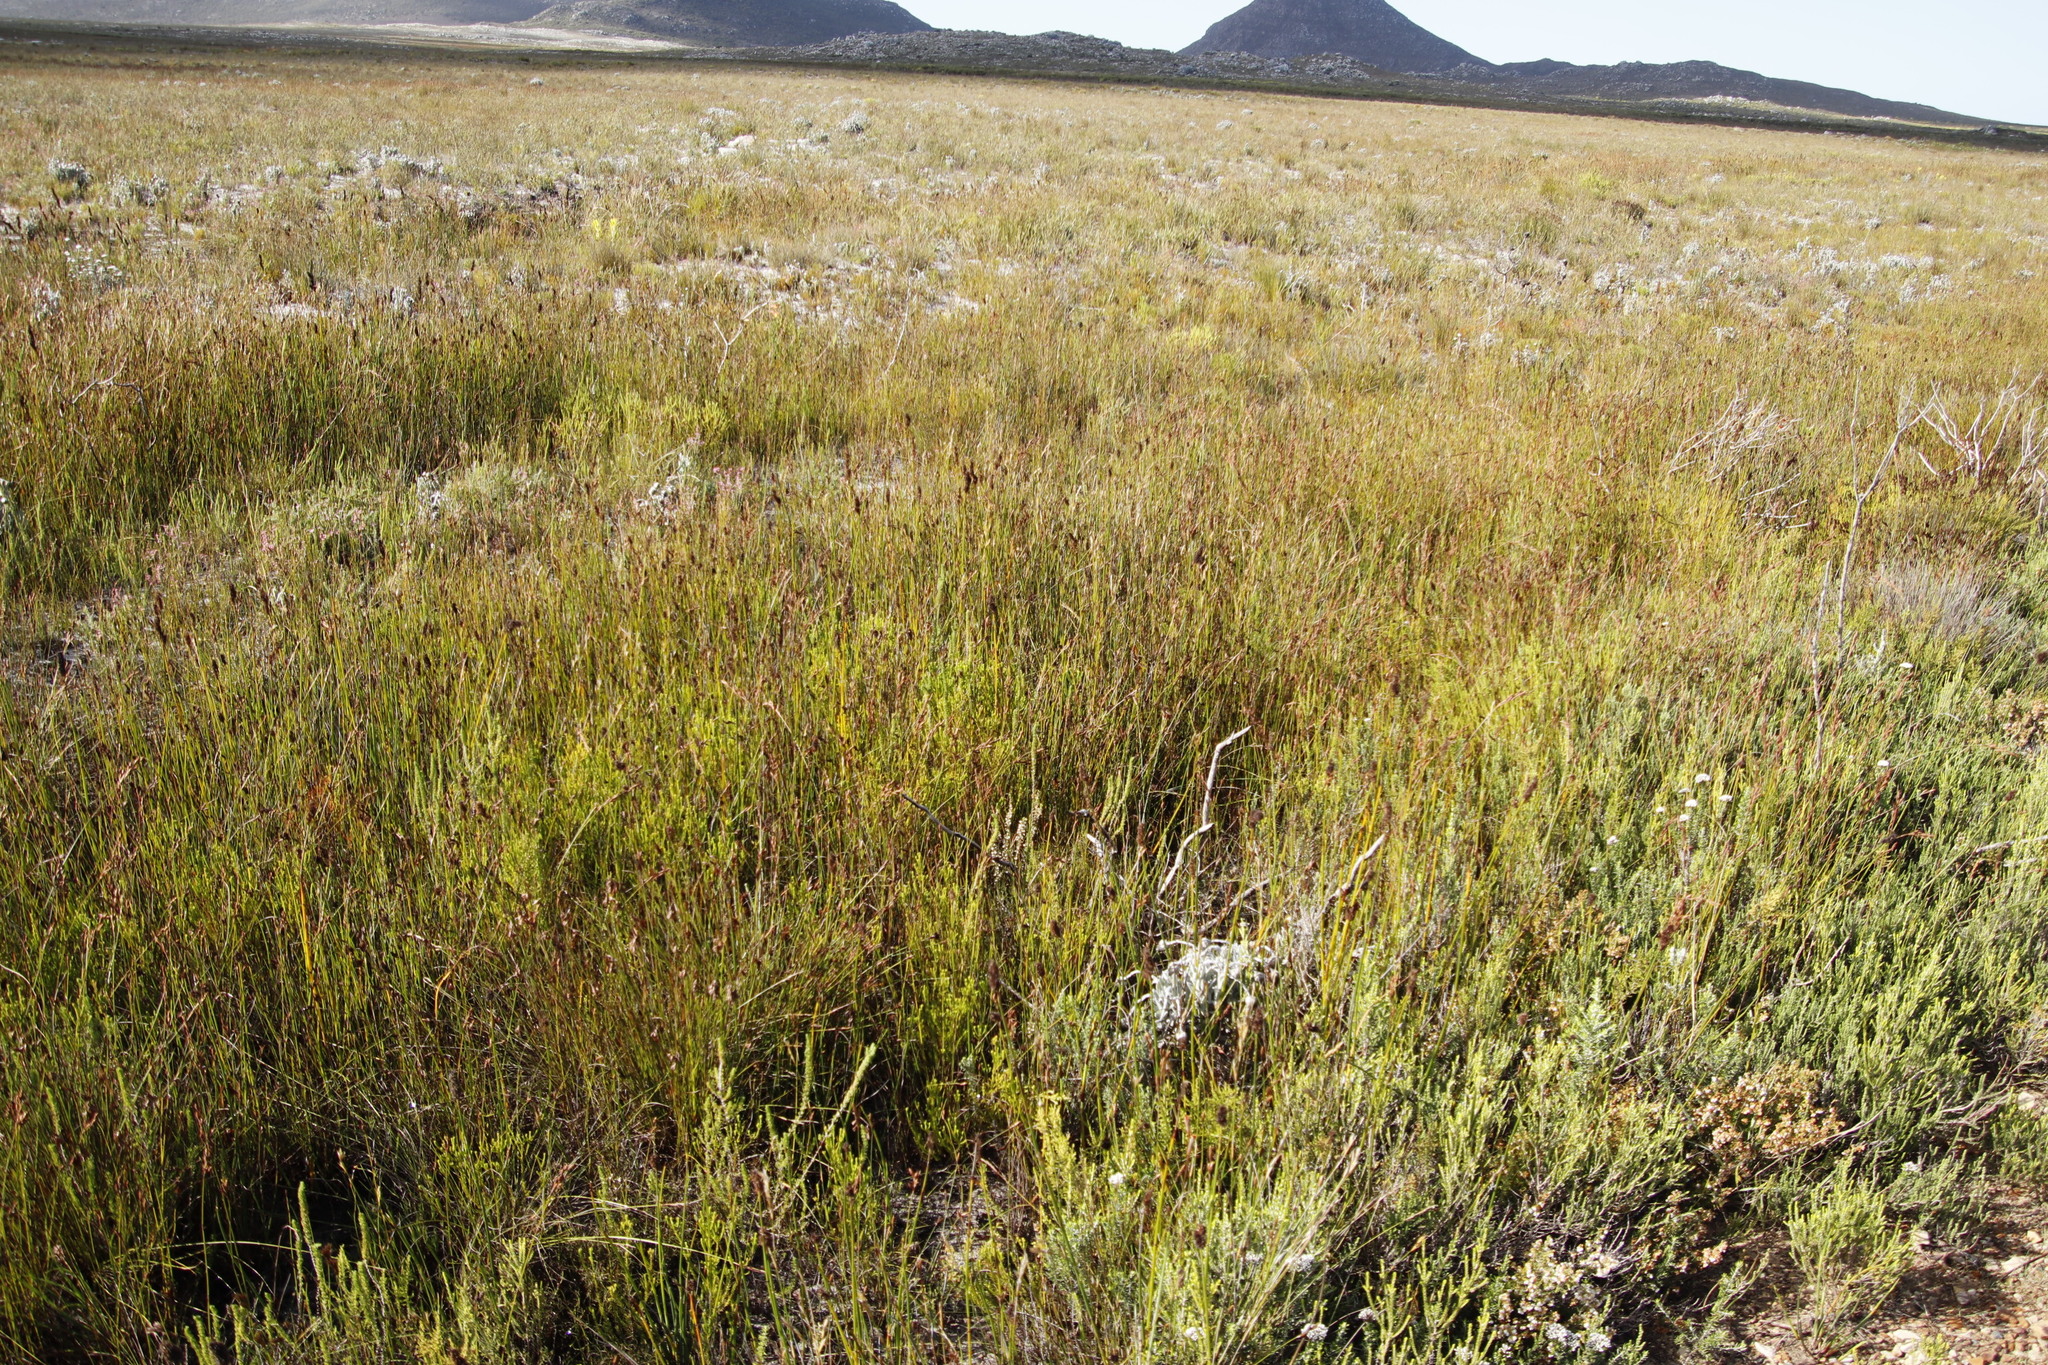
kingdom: Plantae
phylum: Tracheophyta
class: Magnoliopsida
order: Ericales
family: Ericaceae
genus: Erica
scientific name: Erica muscosa
